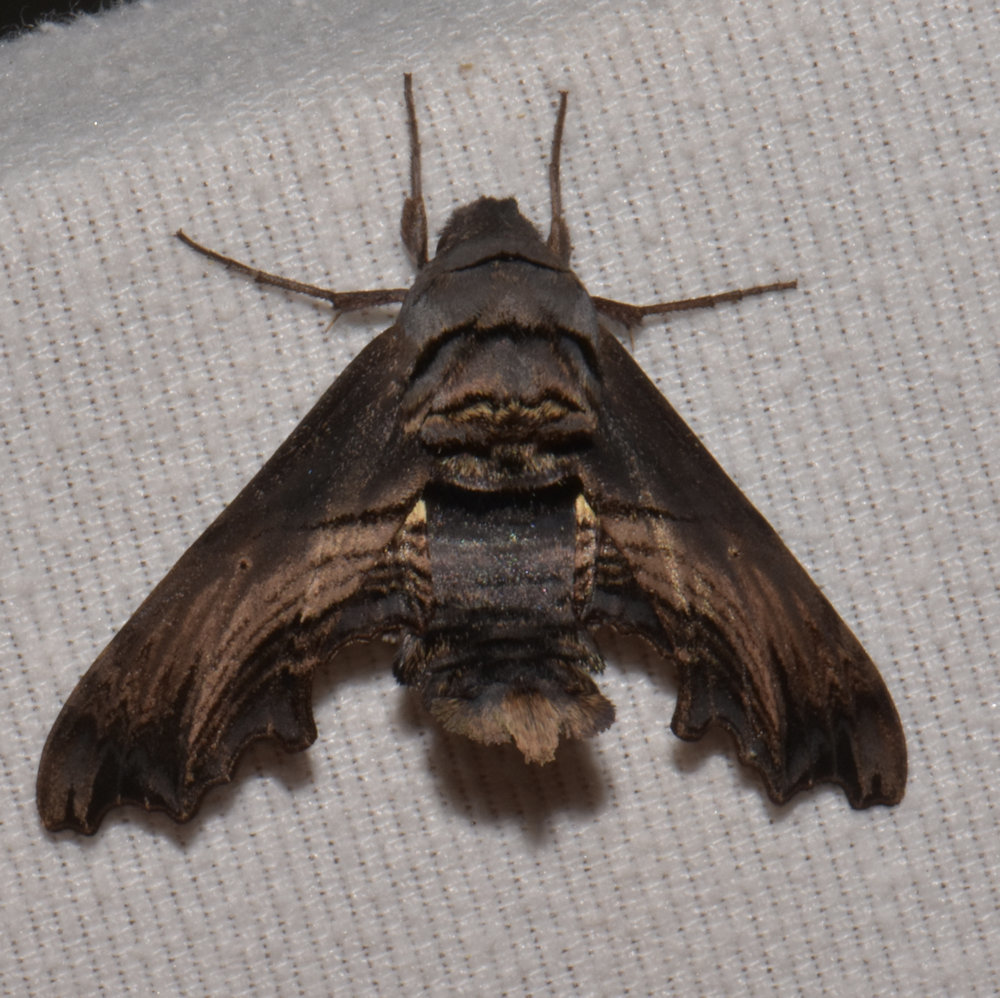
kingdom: Animalia
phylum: Arthropoda
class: Insecta
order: Lepidoptera
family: Sphingidae
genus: Sphecodina
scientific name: Sphecodina abbottii
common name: Abbott's sphinx
